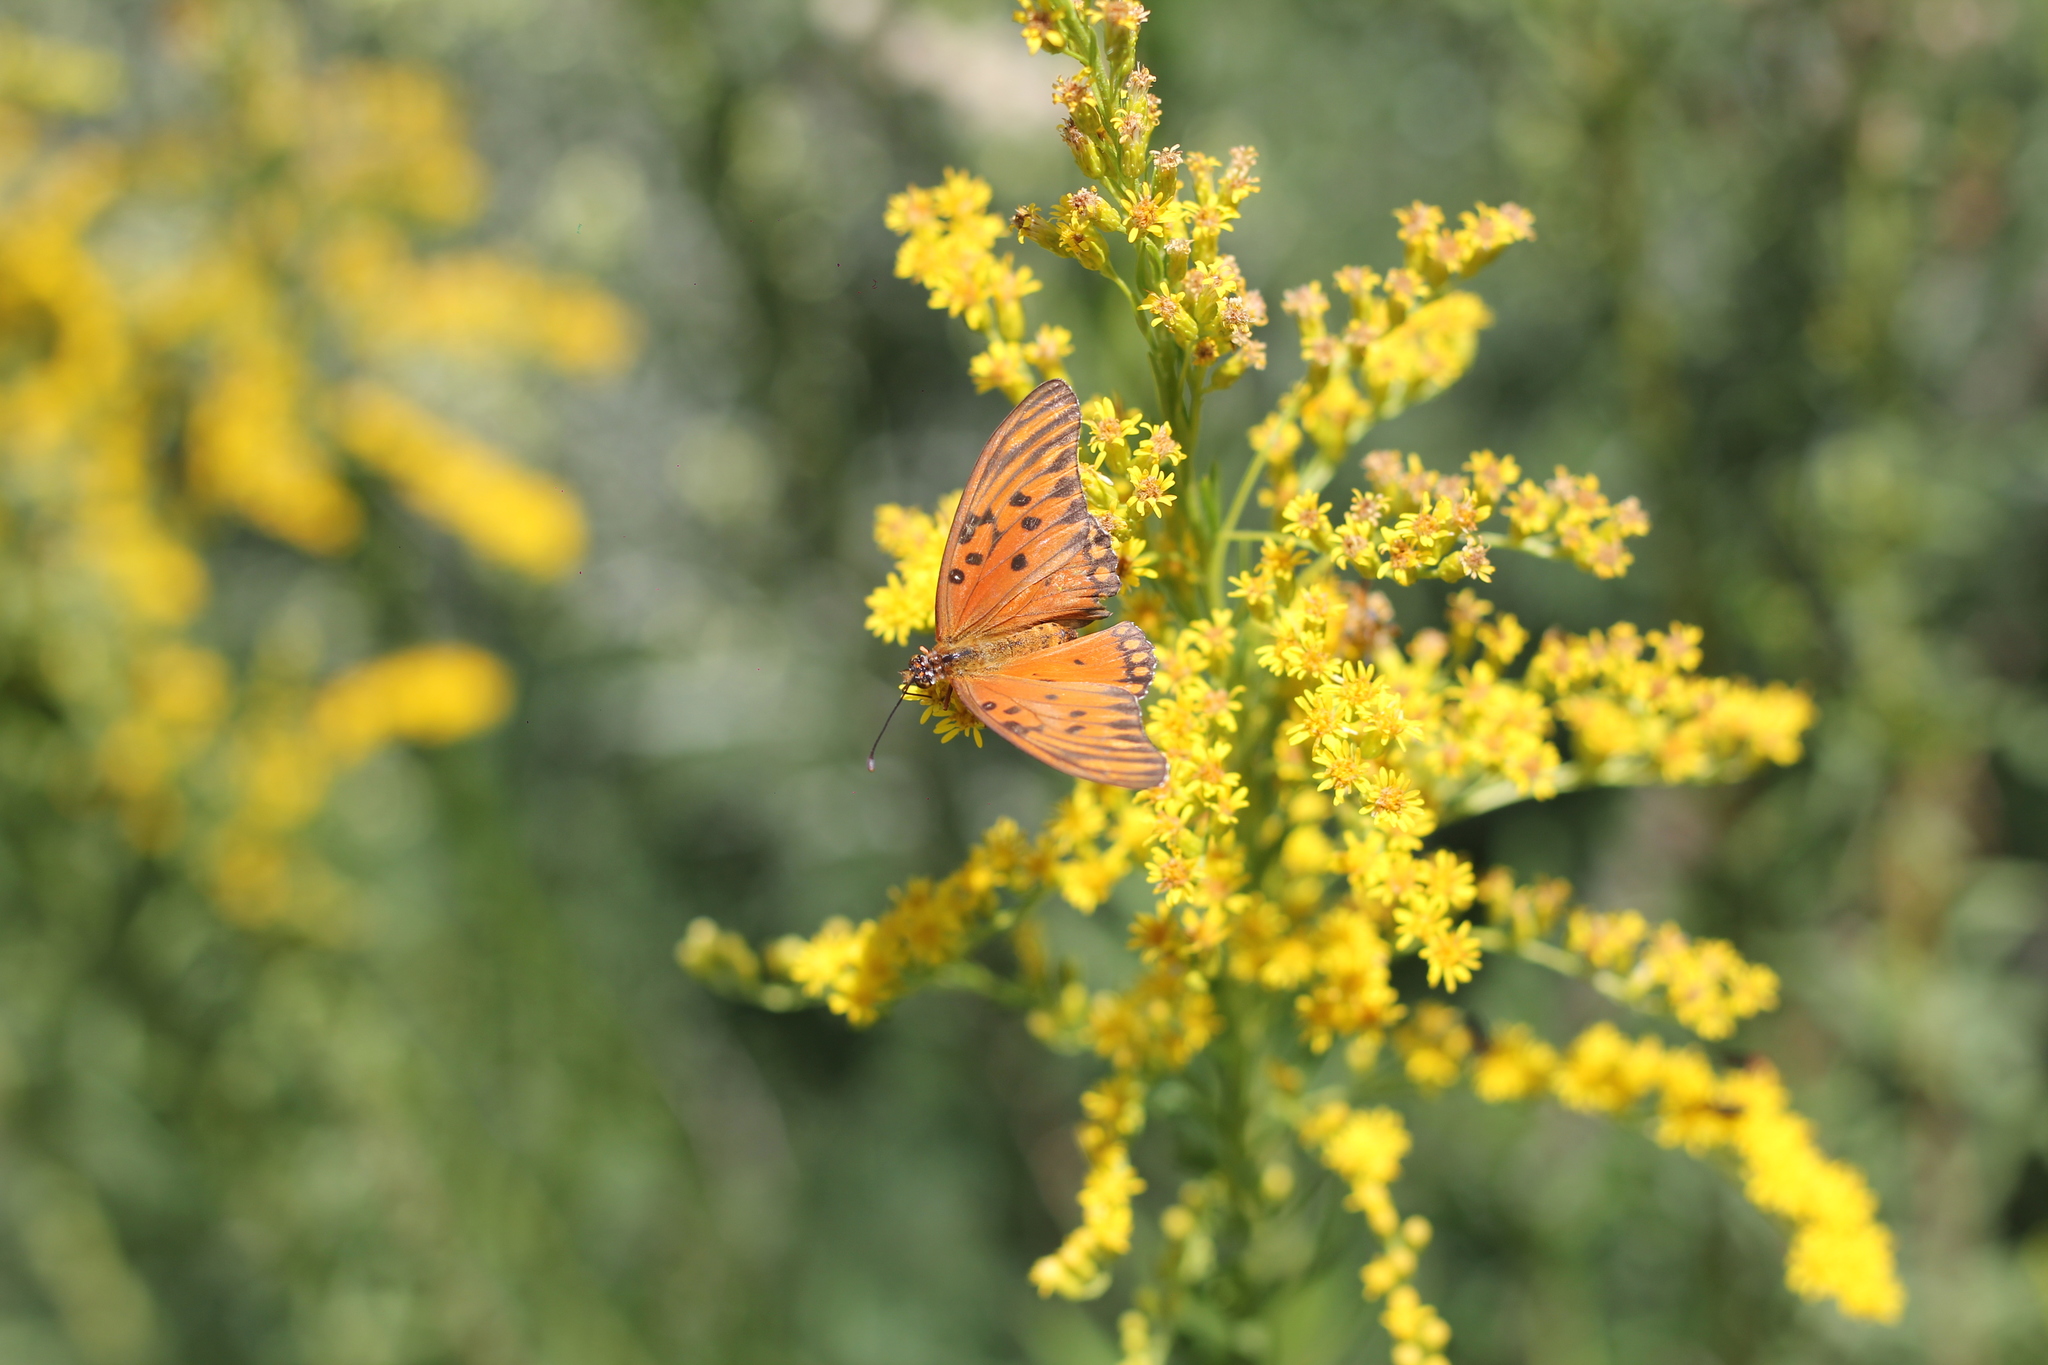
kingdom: Animalia
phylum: Arthropoda
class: Insecta
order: Lepidoptera
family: Nymphalidae
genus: Dione
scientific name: Dione vanillae
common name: Gulf fritillary
